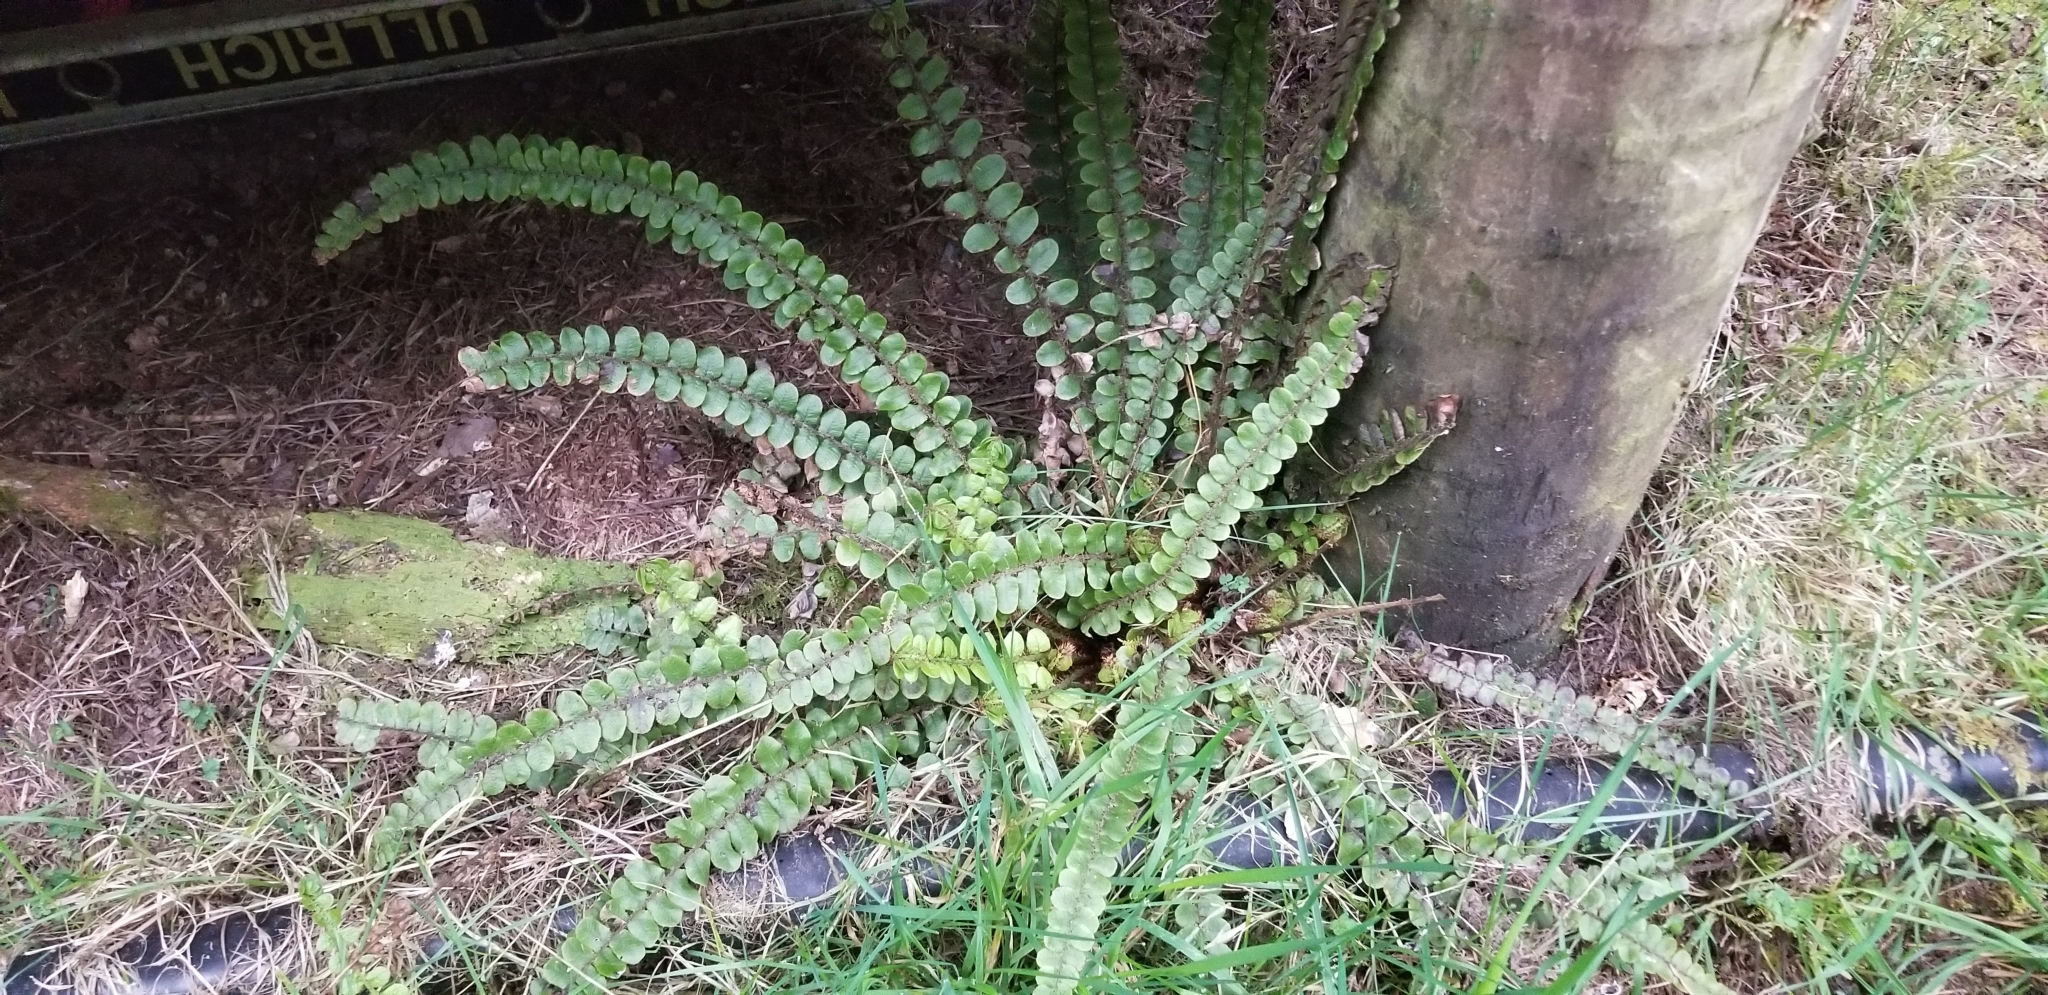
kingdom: Plantae
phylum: Tracheophyta
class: Polypodiopsida
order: Polypodiales
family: Blechnaceae
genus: Cranfillia
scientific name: Cranfillia fluviatilis
